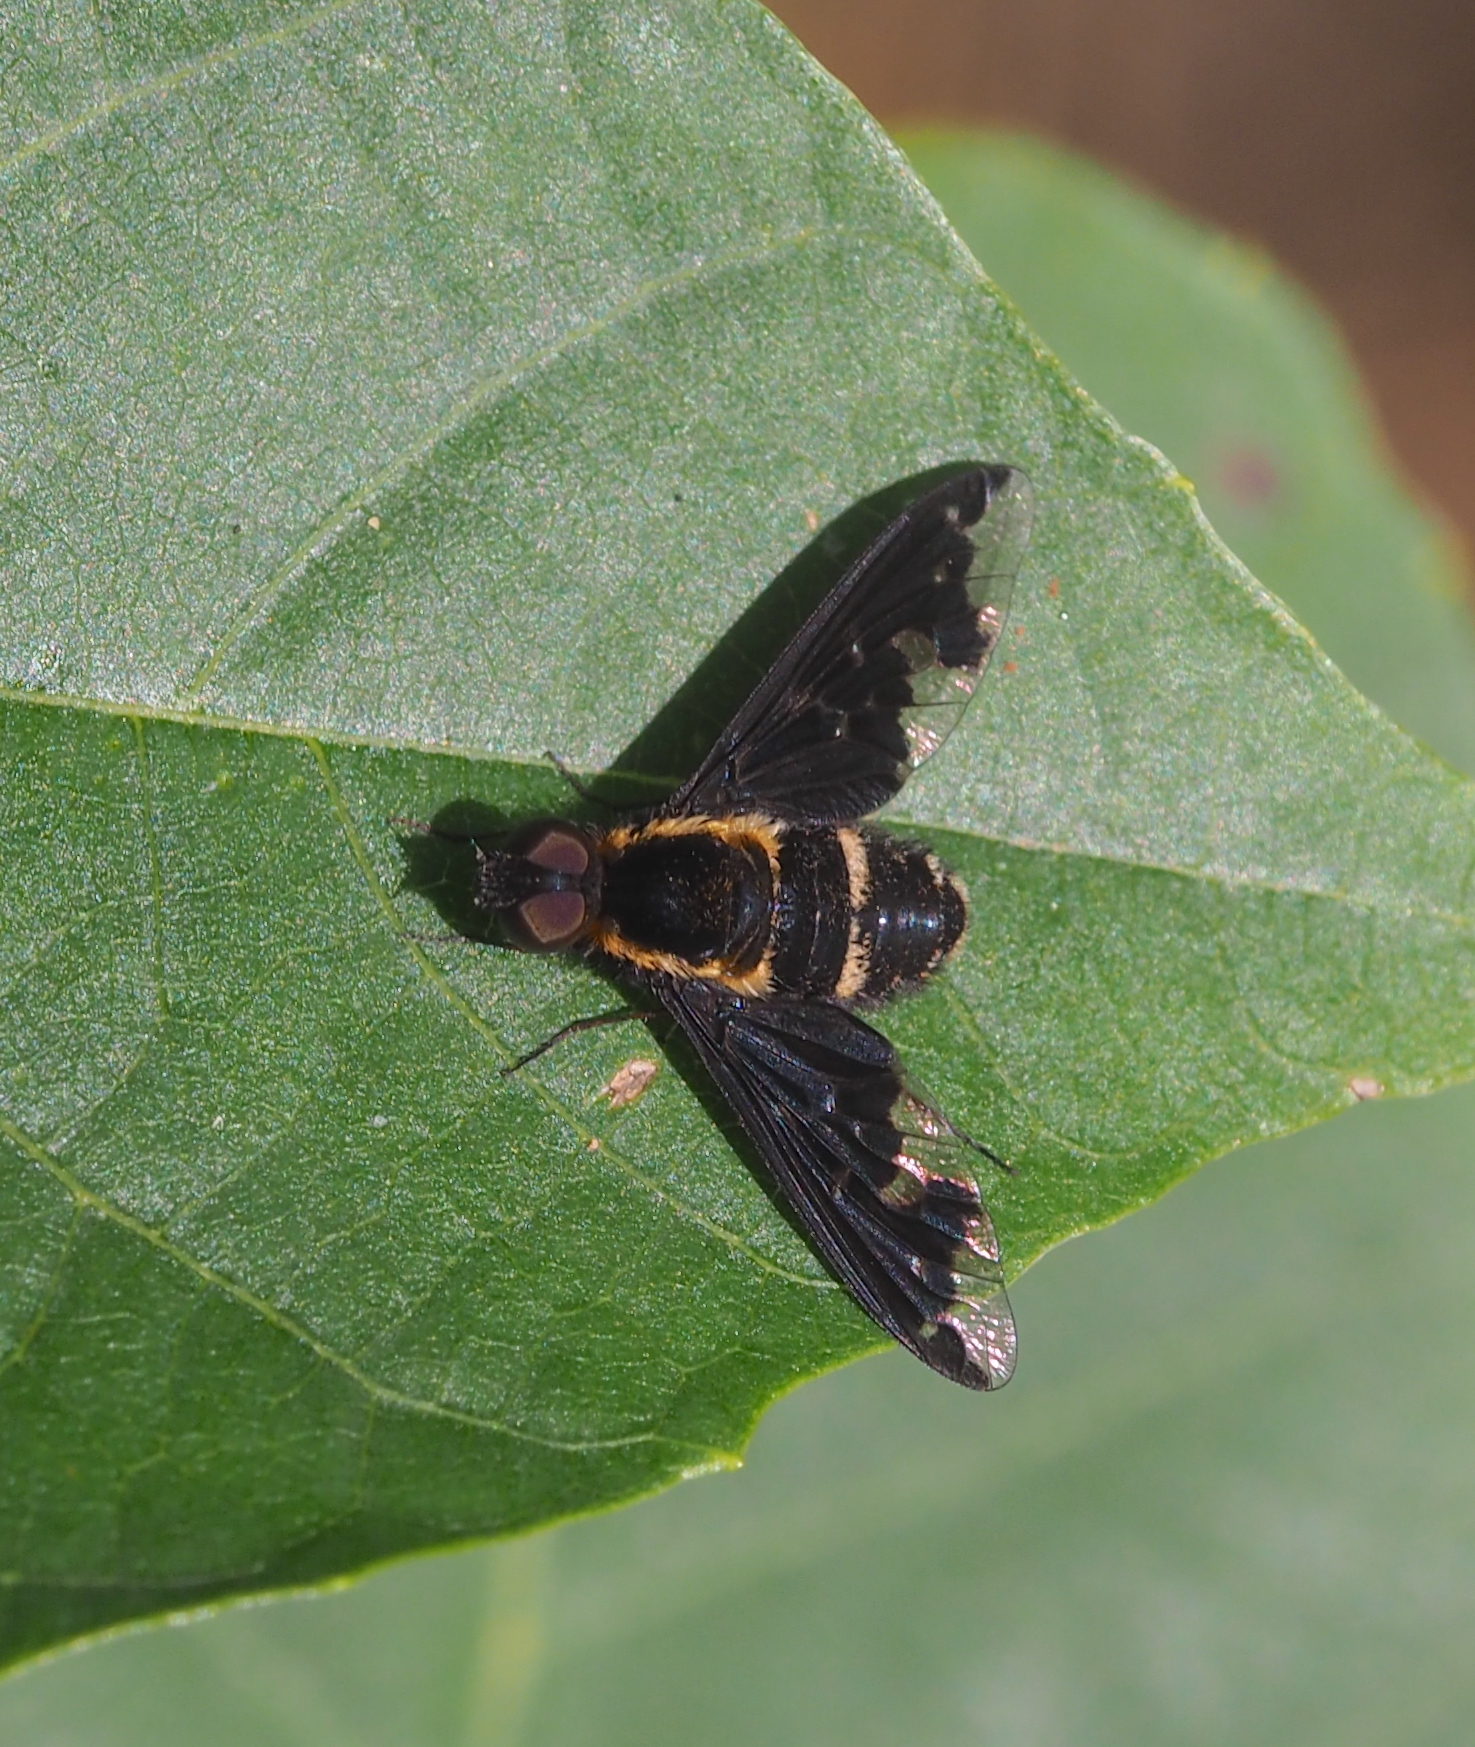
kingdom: Animalia
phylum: Arthropoda
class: Insecta
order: Diptera
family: Bombyliidae
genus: Hemipenthes
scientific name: Hemipenthes maura
